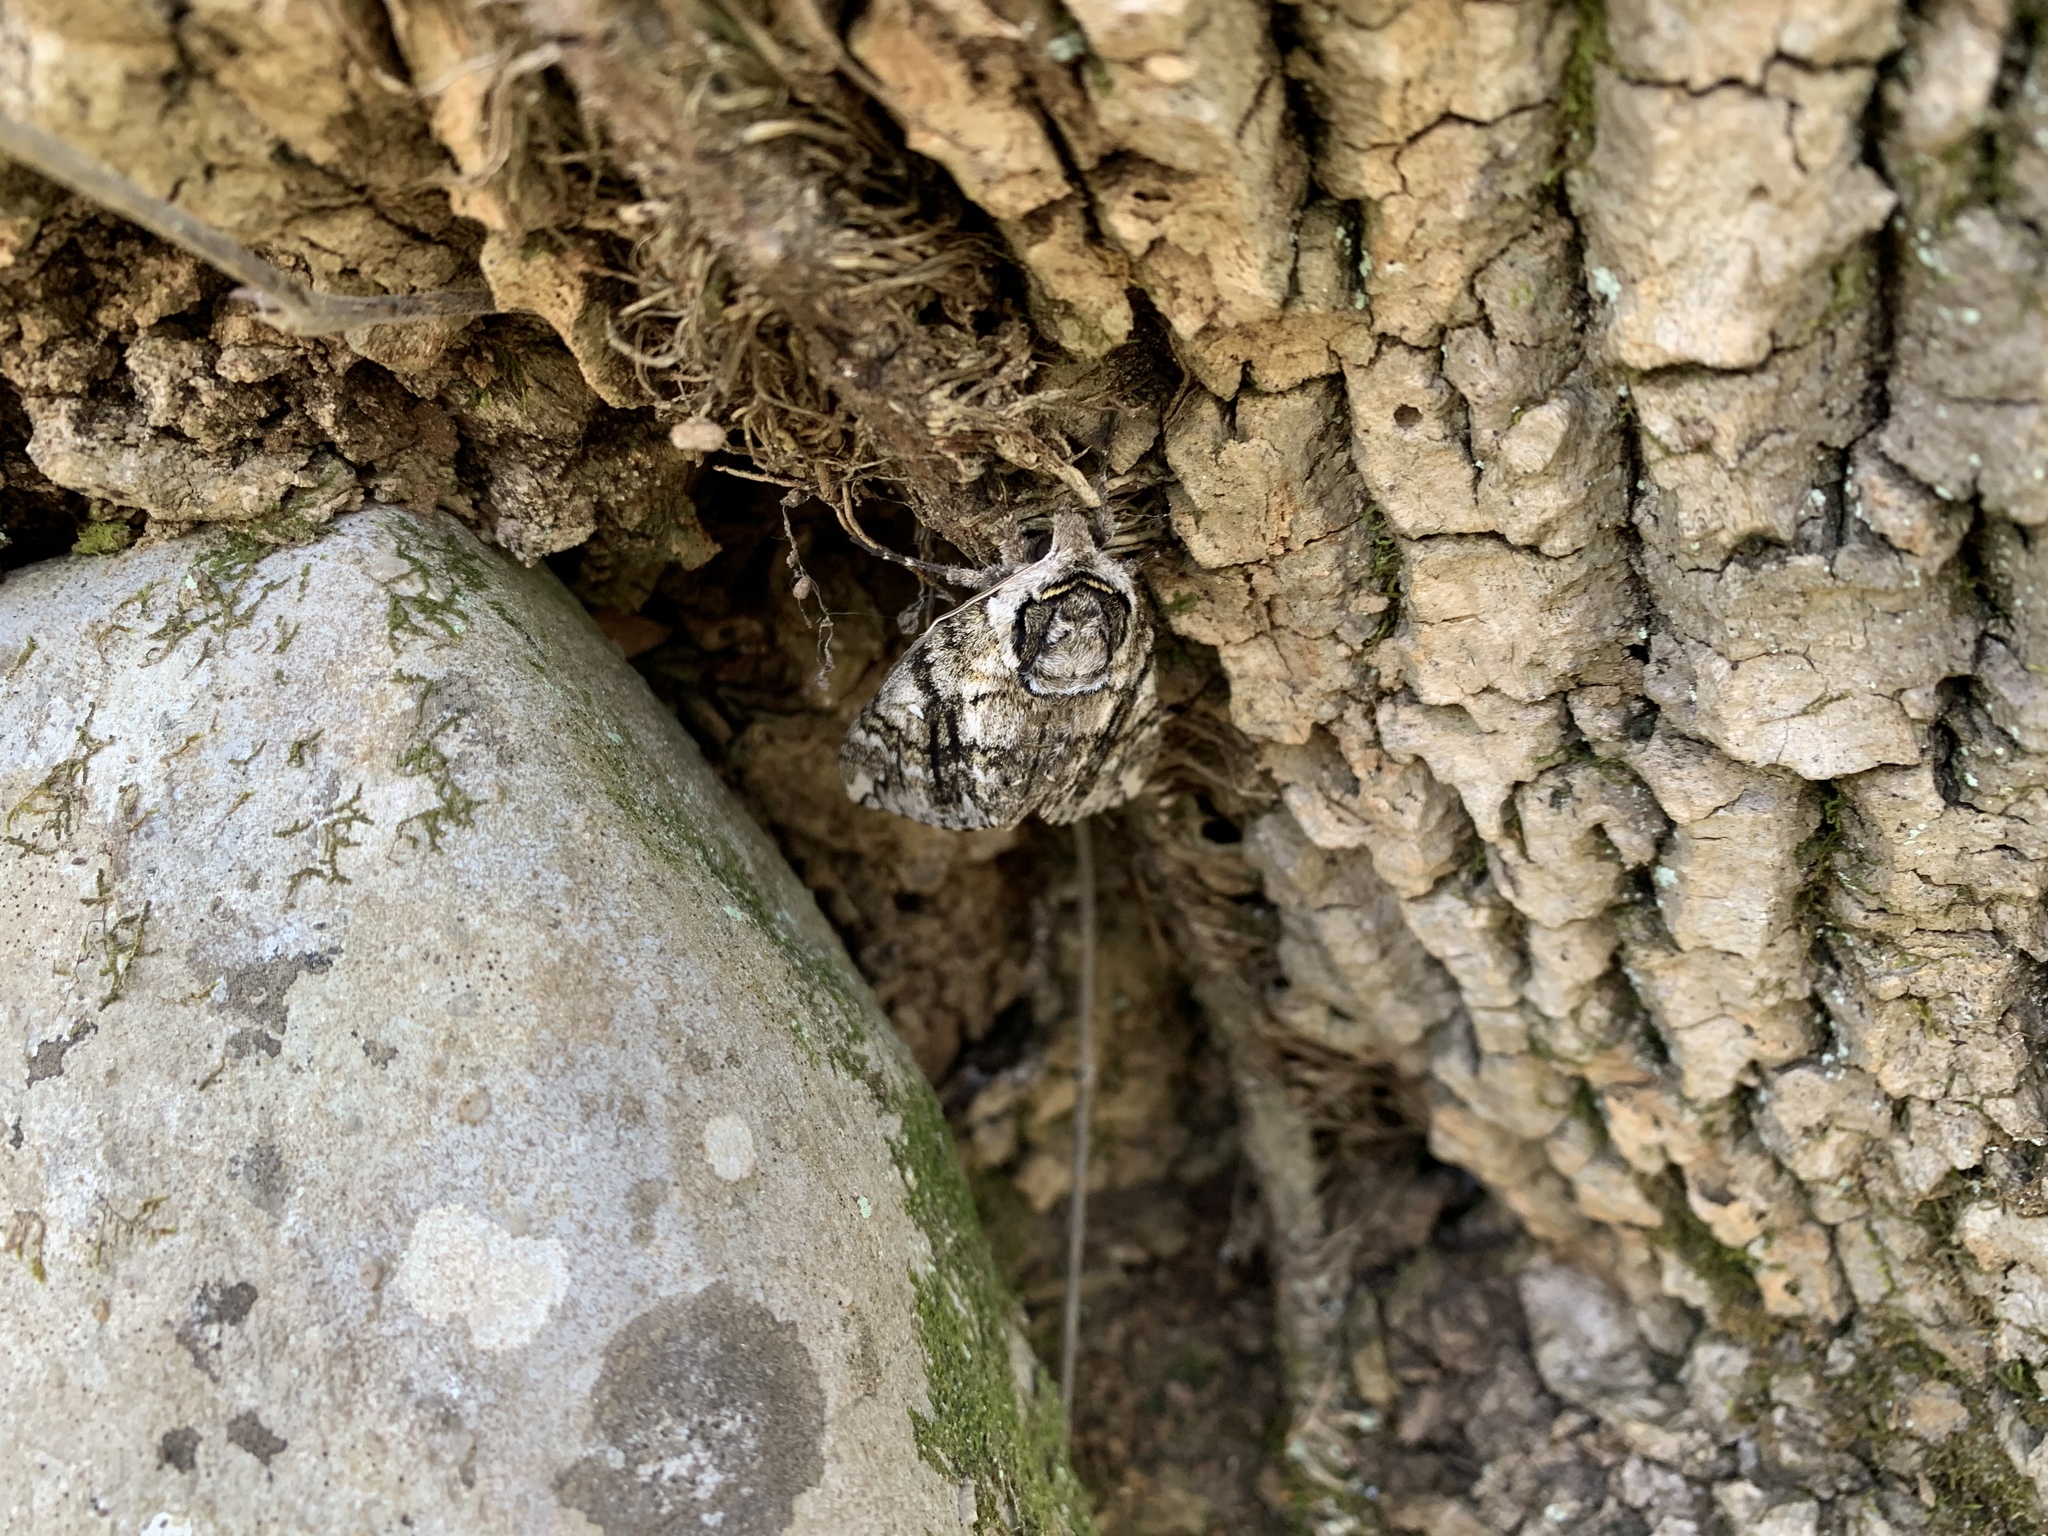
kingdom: Animalia
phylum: Arthropoda
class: Insecta
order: Lepidoptera
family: Sphingidae
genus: Ceratomia
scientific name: Ceratomia undulosa
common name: Waved sphinx
